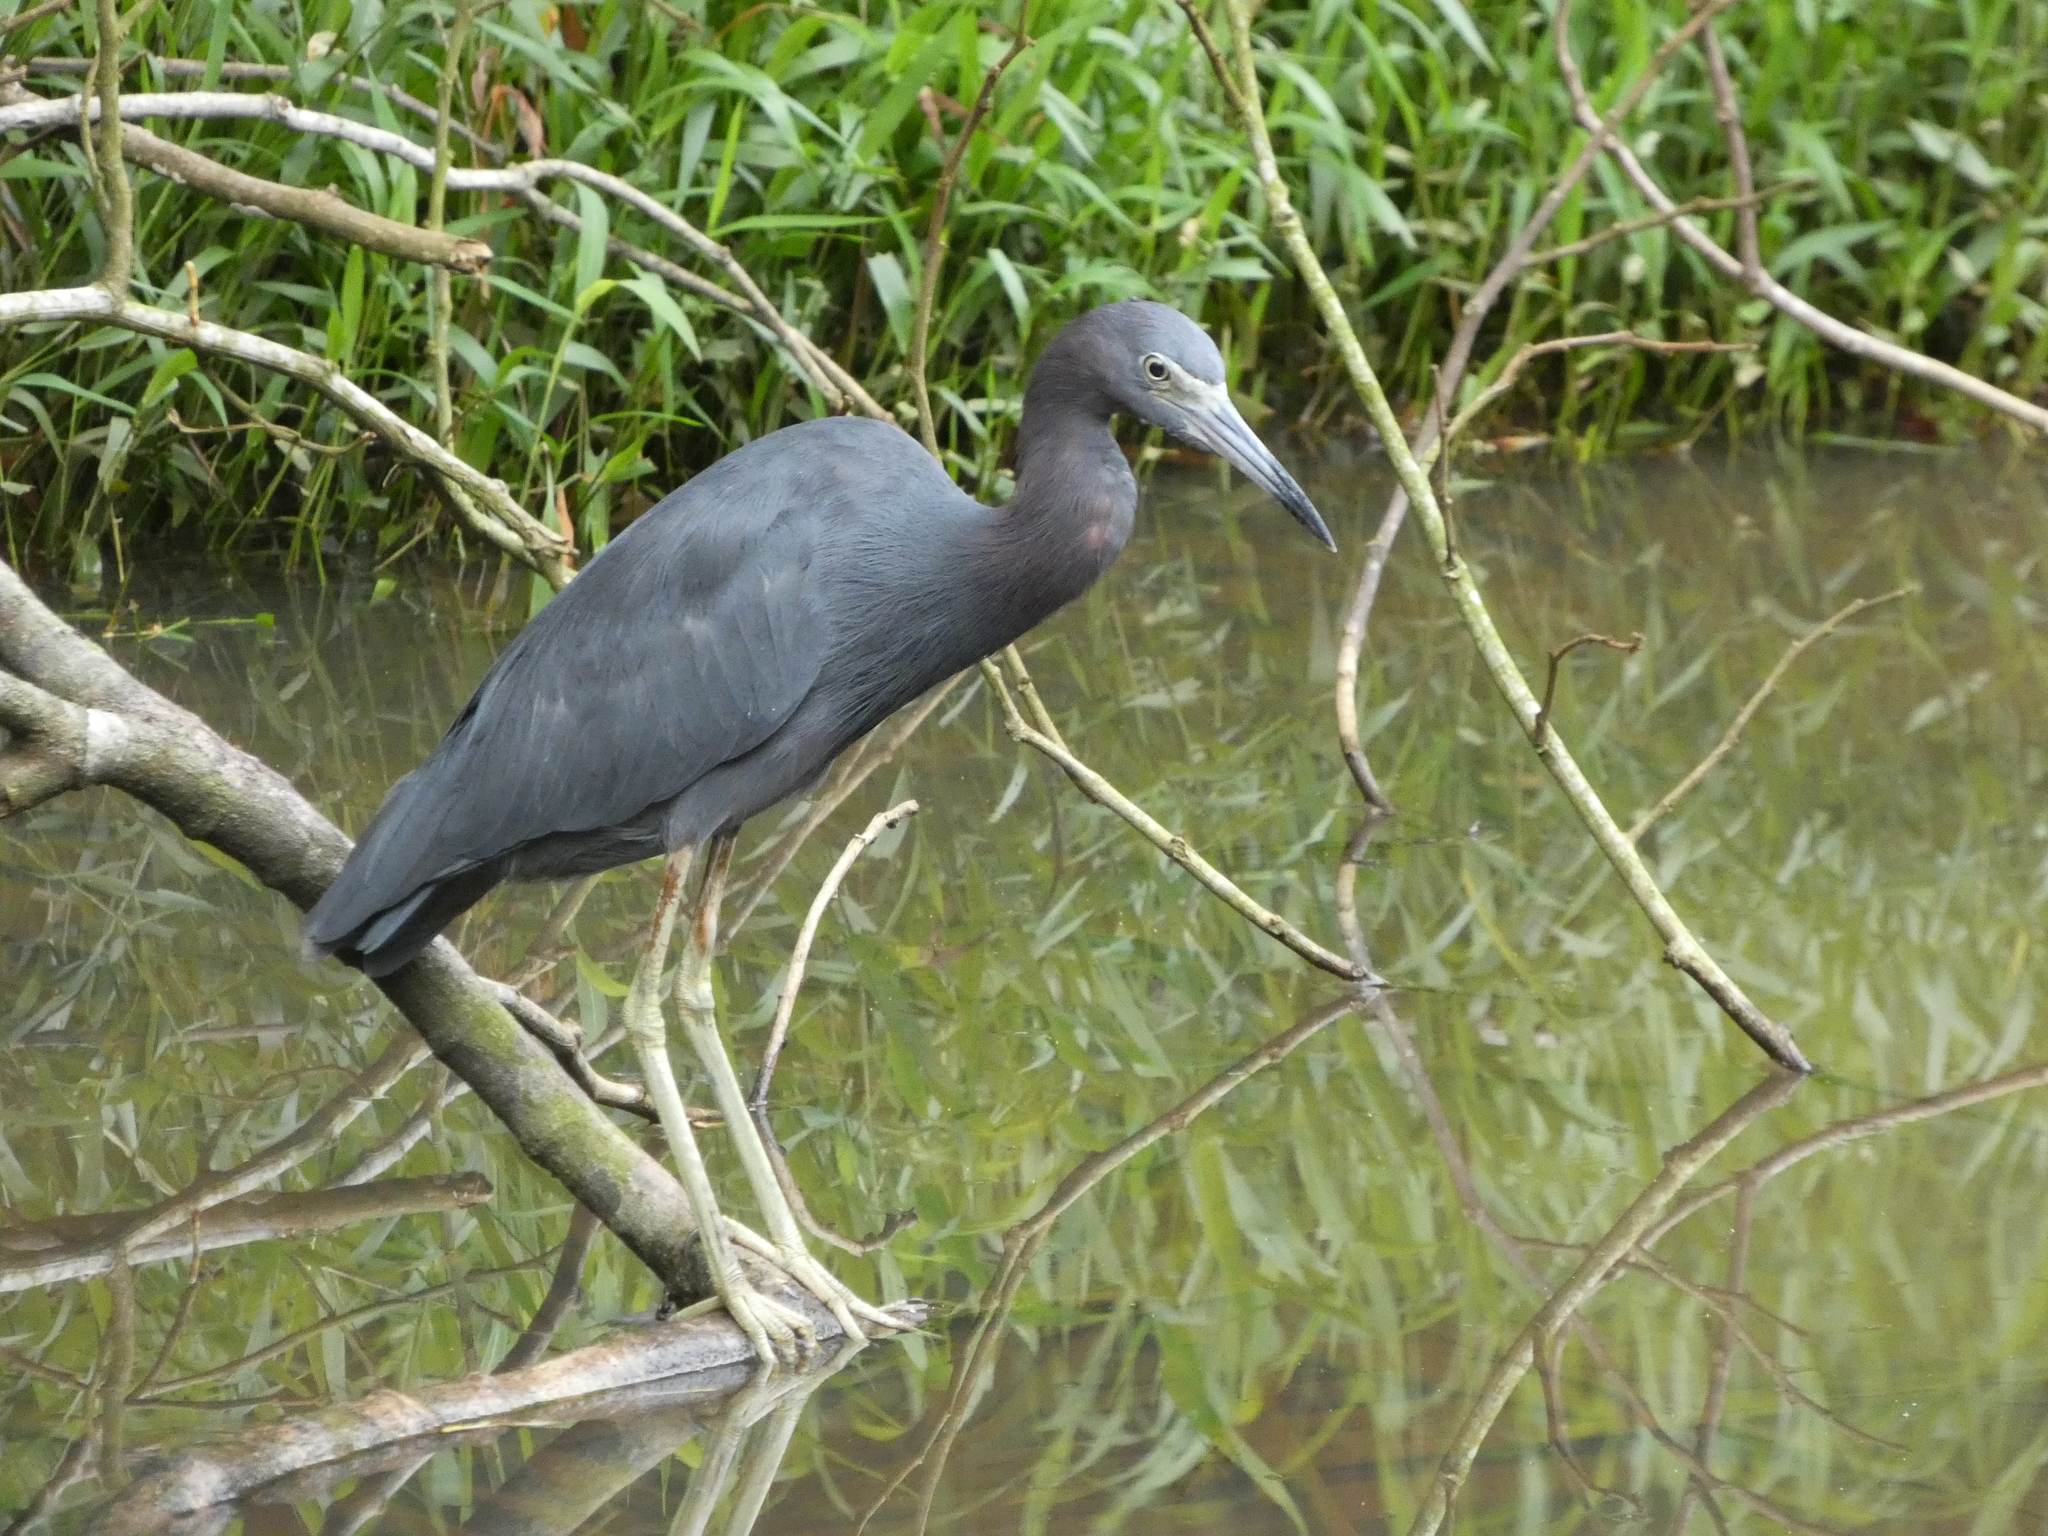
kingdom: Animalia
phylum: Chordata
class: Aves
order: Pelecaniformes
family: Ardeidae
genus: Egretta
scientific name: Egretta caerulea
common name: Little blue heron
